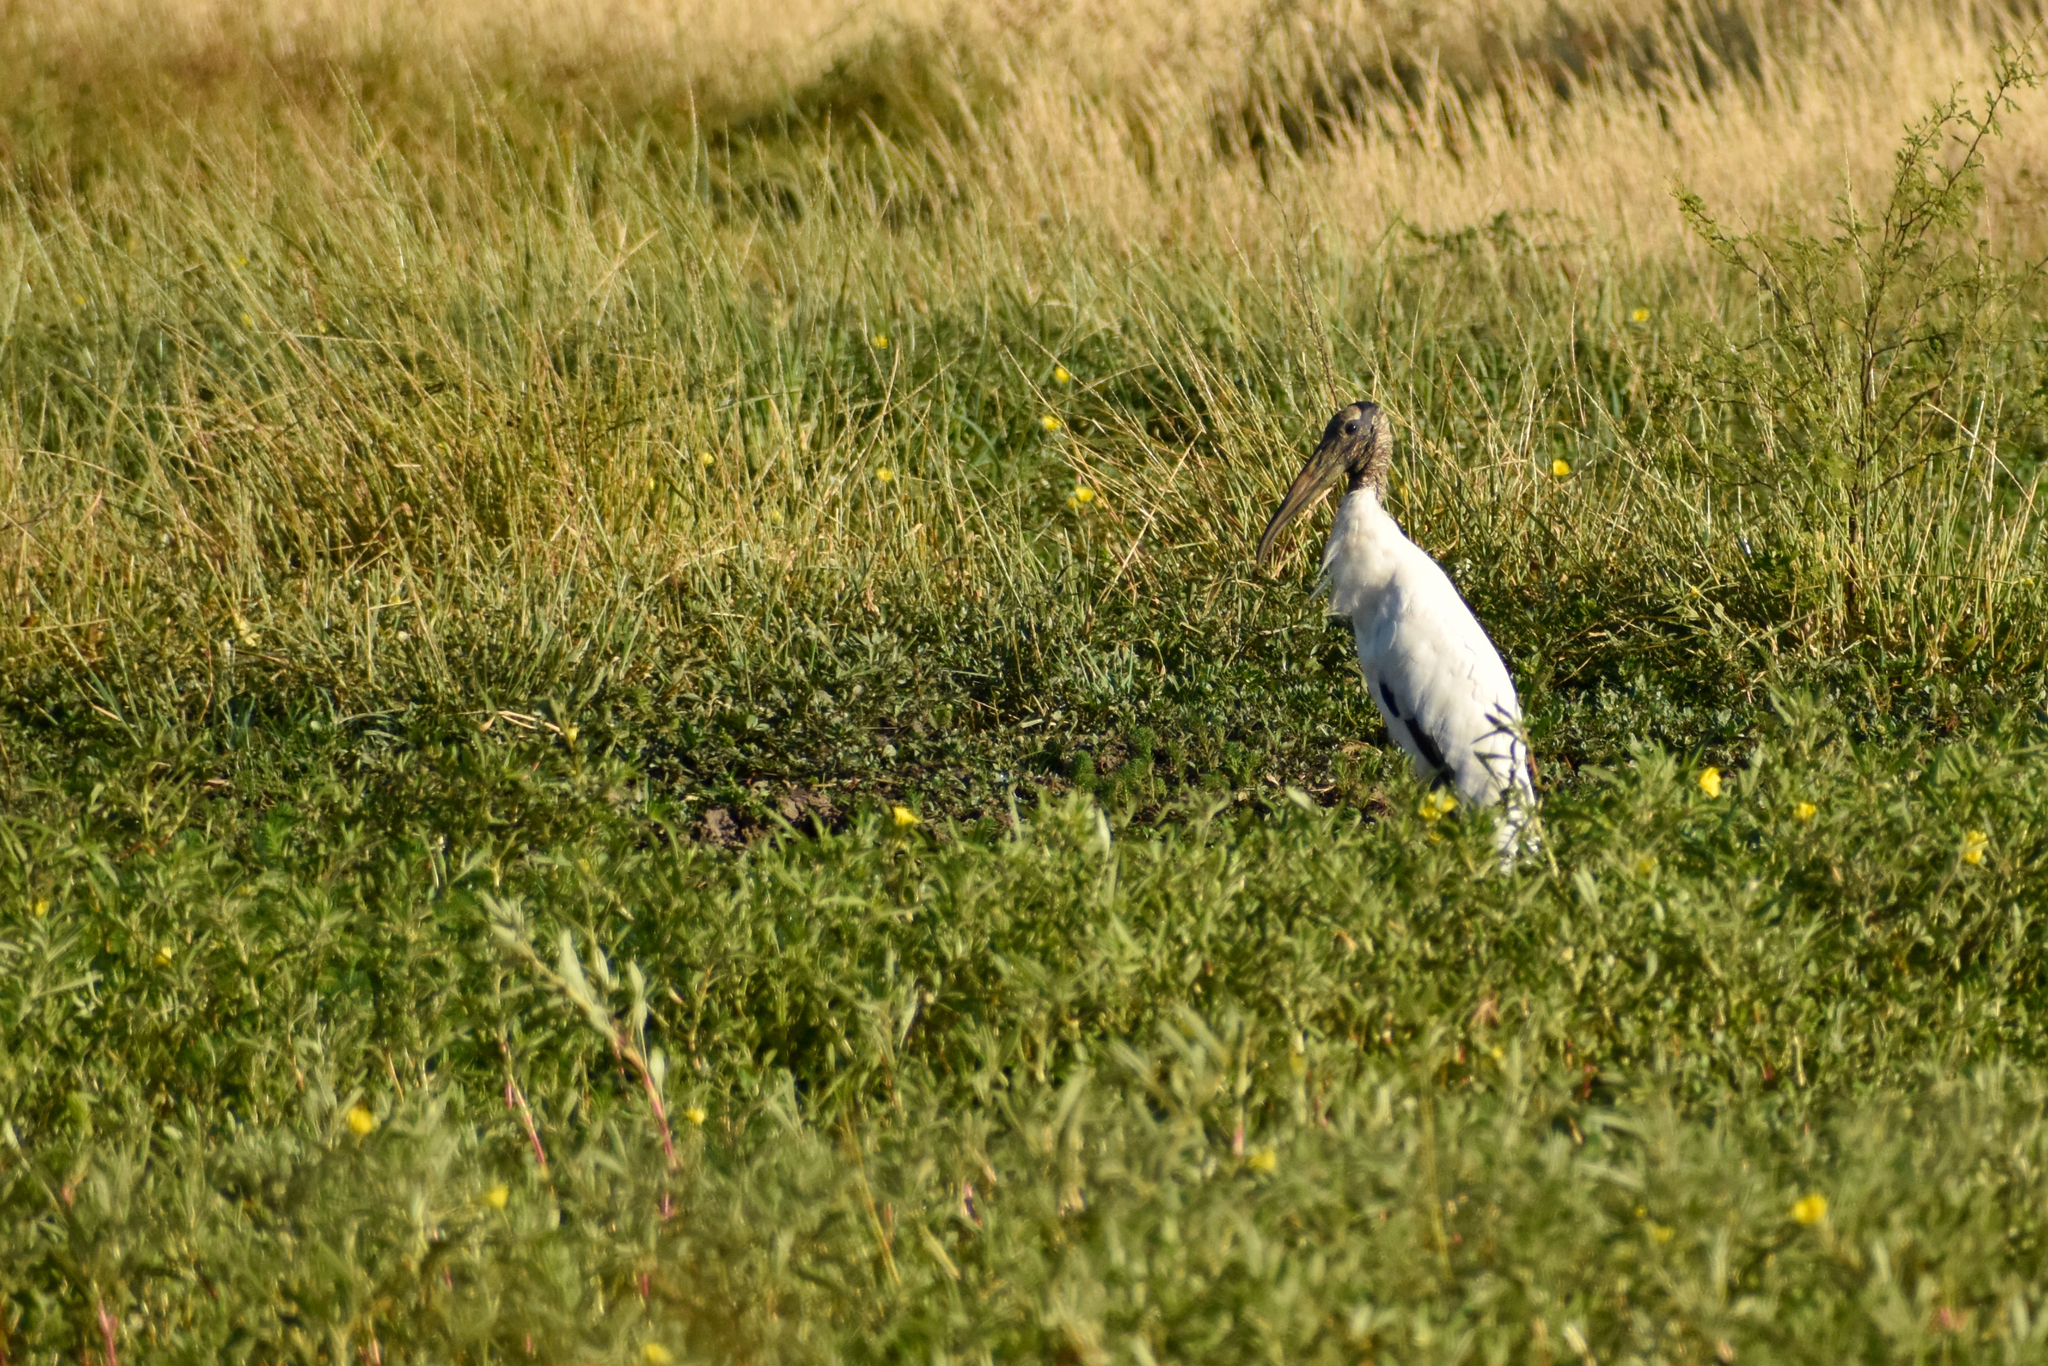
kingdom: Animalia
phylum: Chordata
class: Aves
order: Ciconiiformes
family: Ciconiidae
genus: Mycteria
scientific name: Mycteria americana
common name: Wood stork
